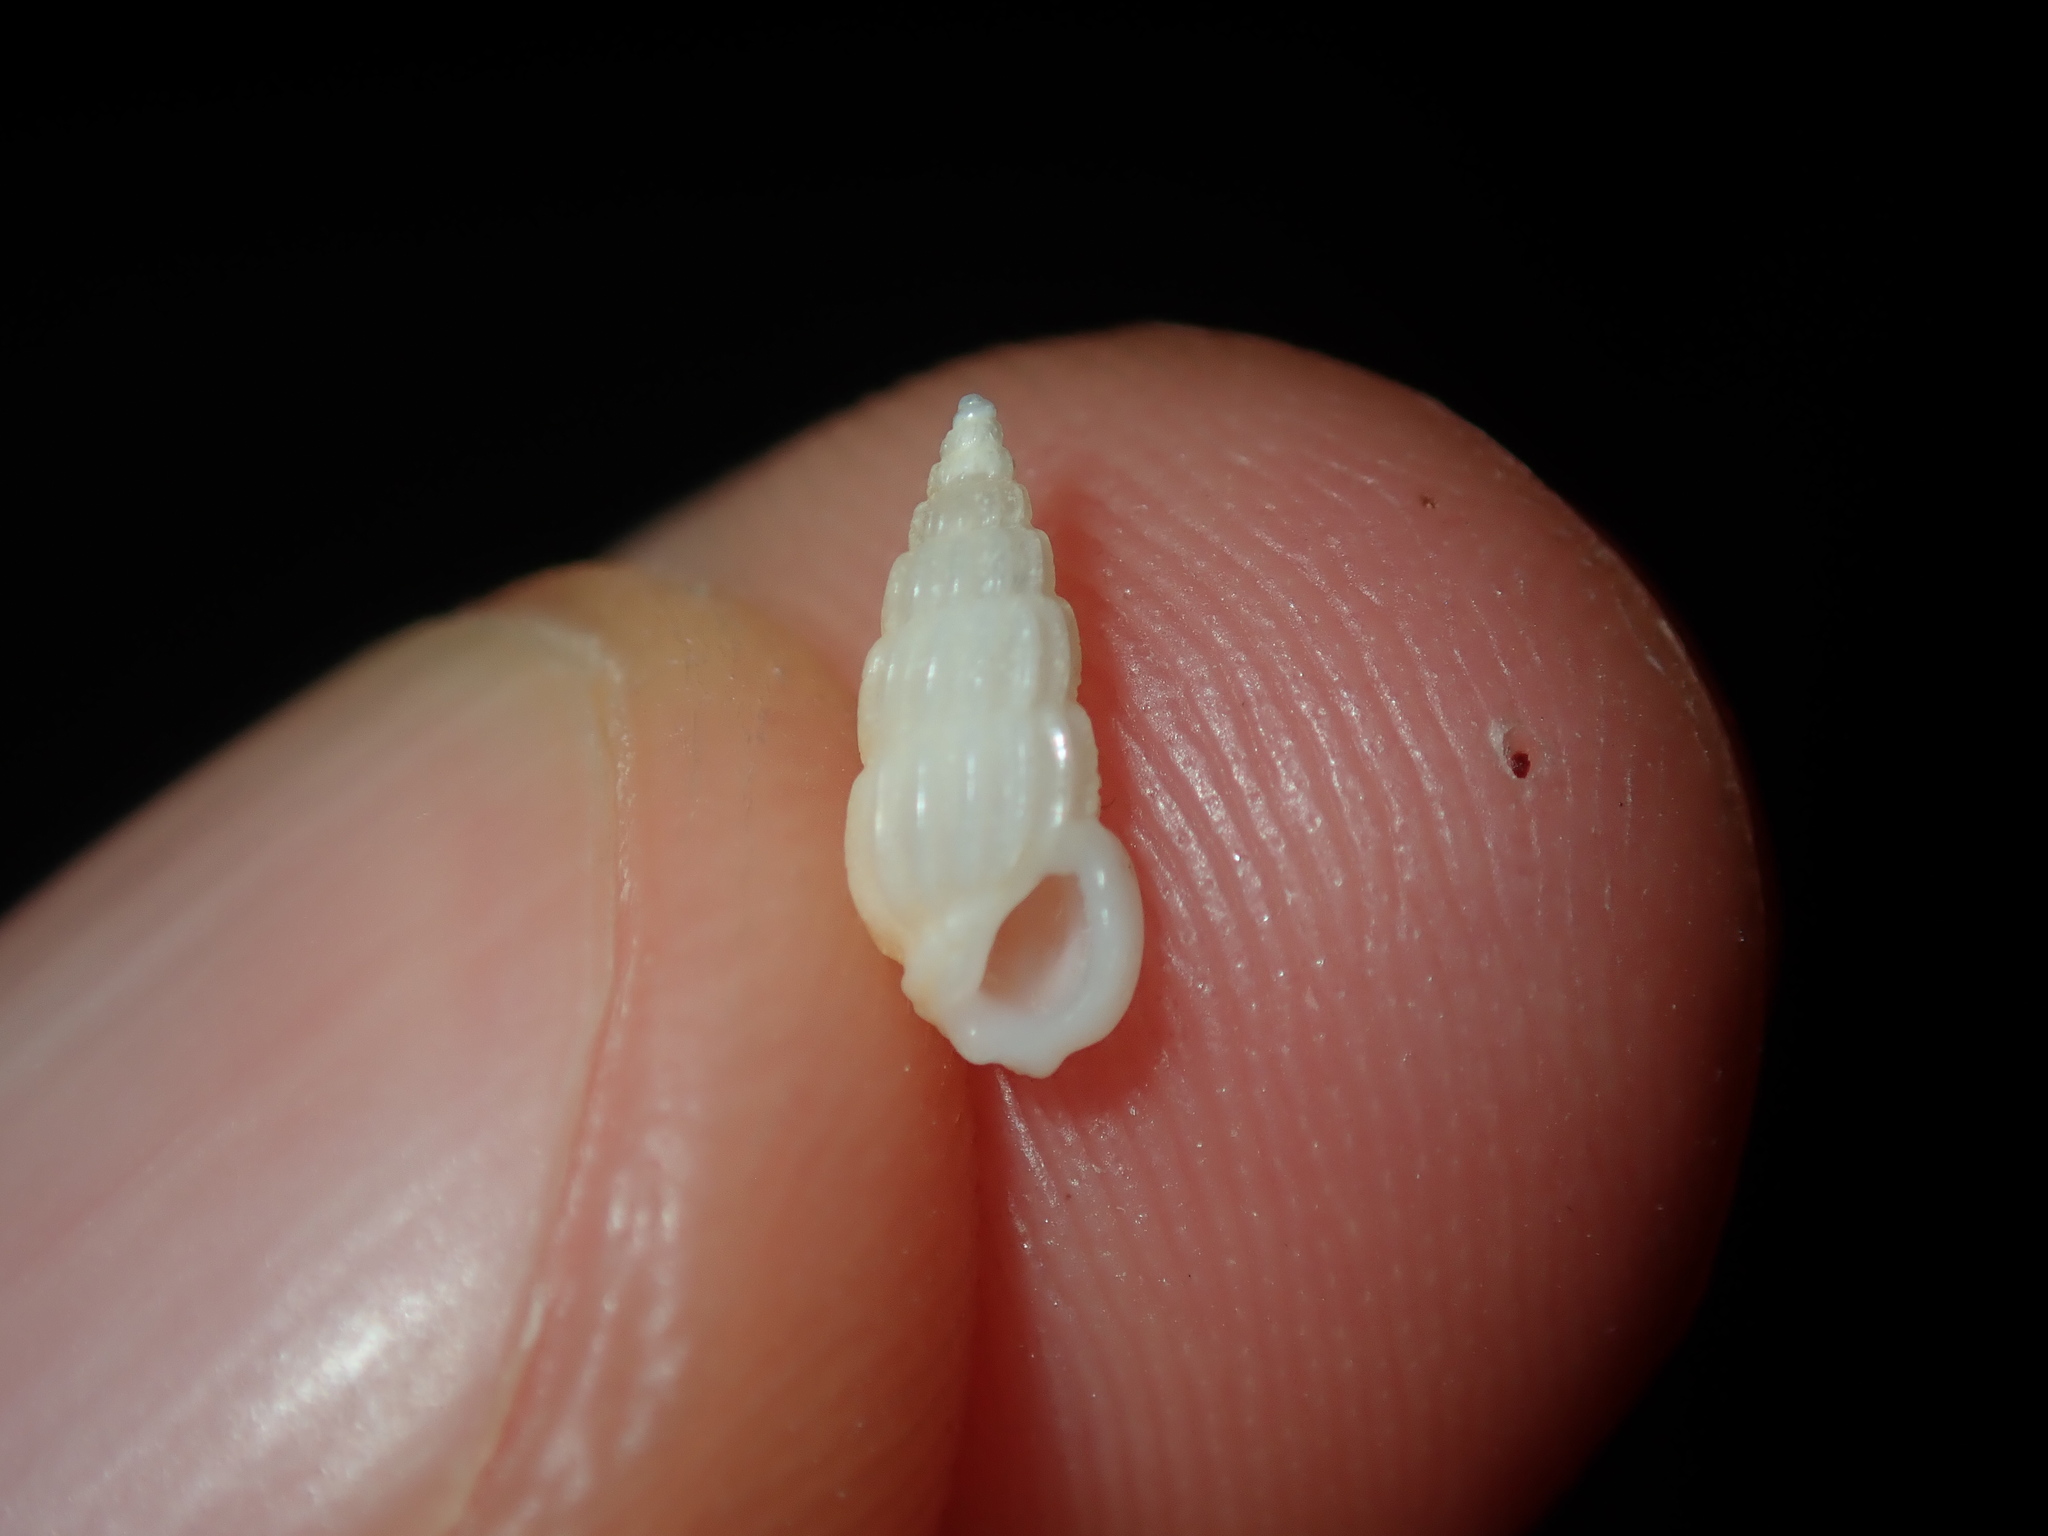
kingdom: Animalia
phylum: Mollusca
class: Gastropoda
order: Littorinimorpha
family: Rissoinidae
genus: Rissoina
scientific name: Rissoina hernandezi
